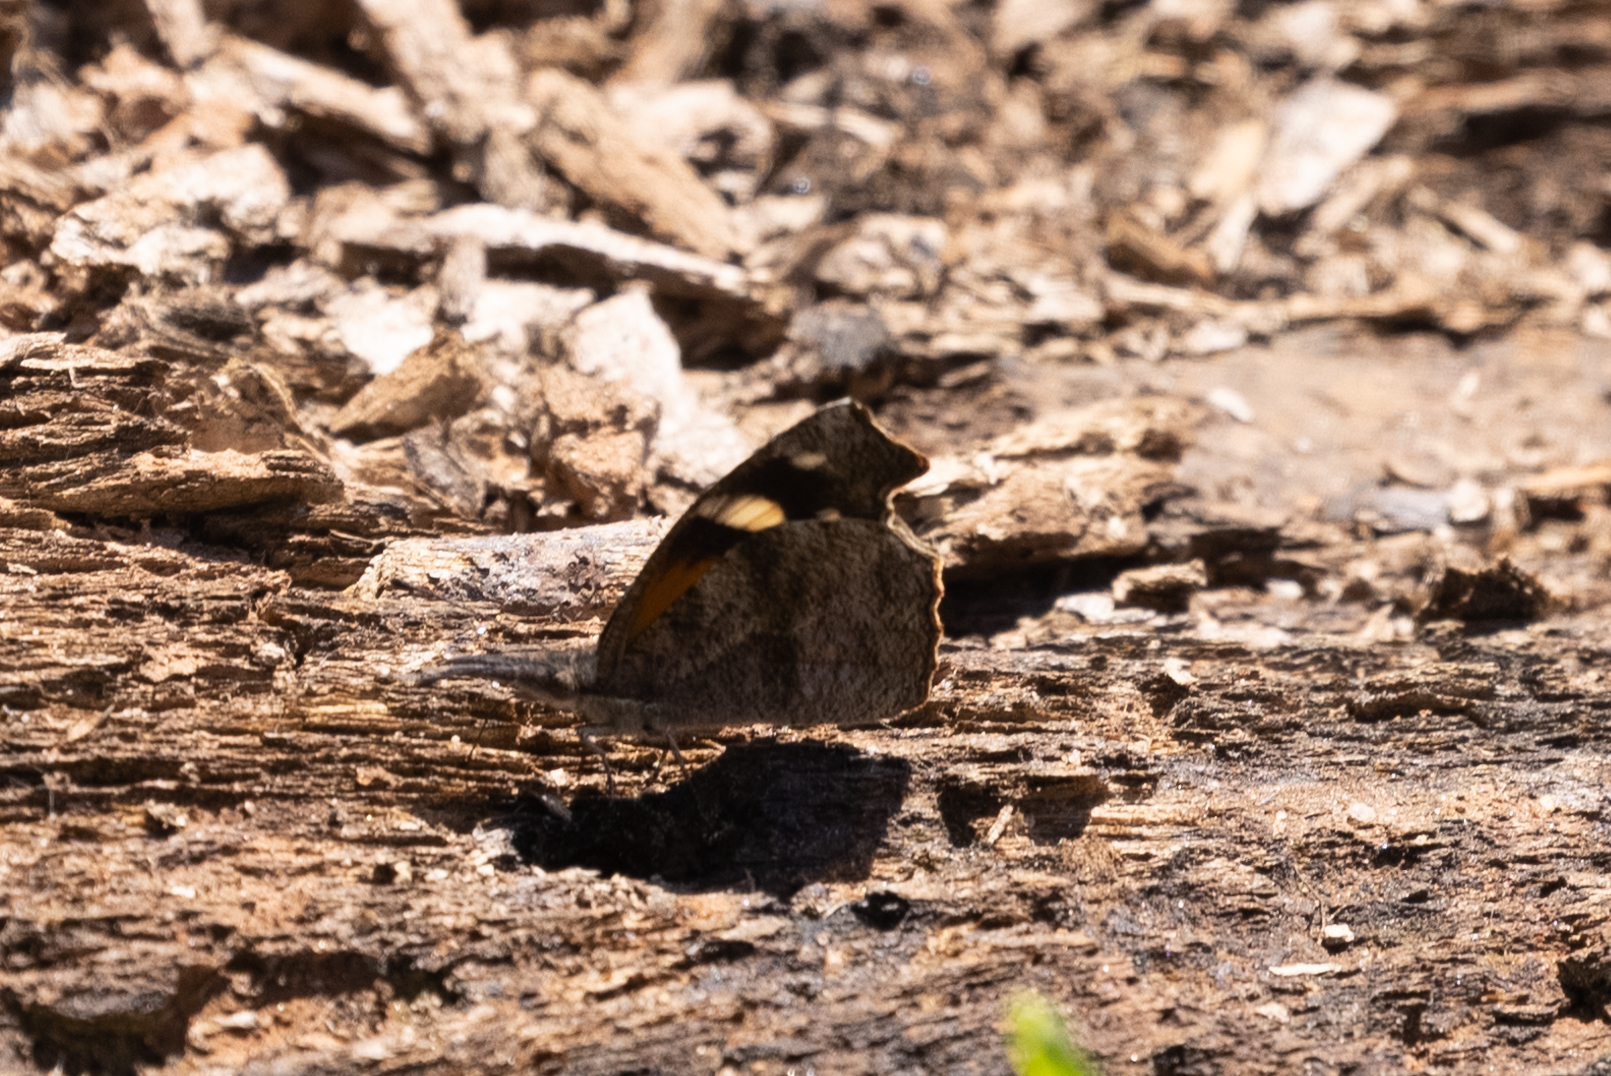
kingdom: Animalia
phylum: Arthropoda
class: Insecta
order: Lepidoptera
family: Nymphalidae
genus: Libytheana
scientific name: Libytheana carinenta
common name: American snout
